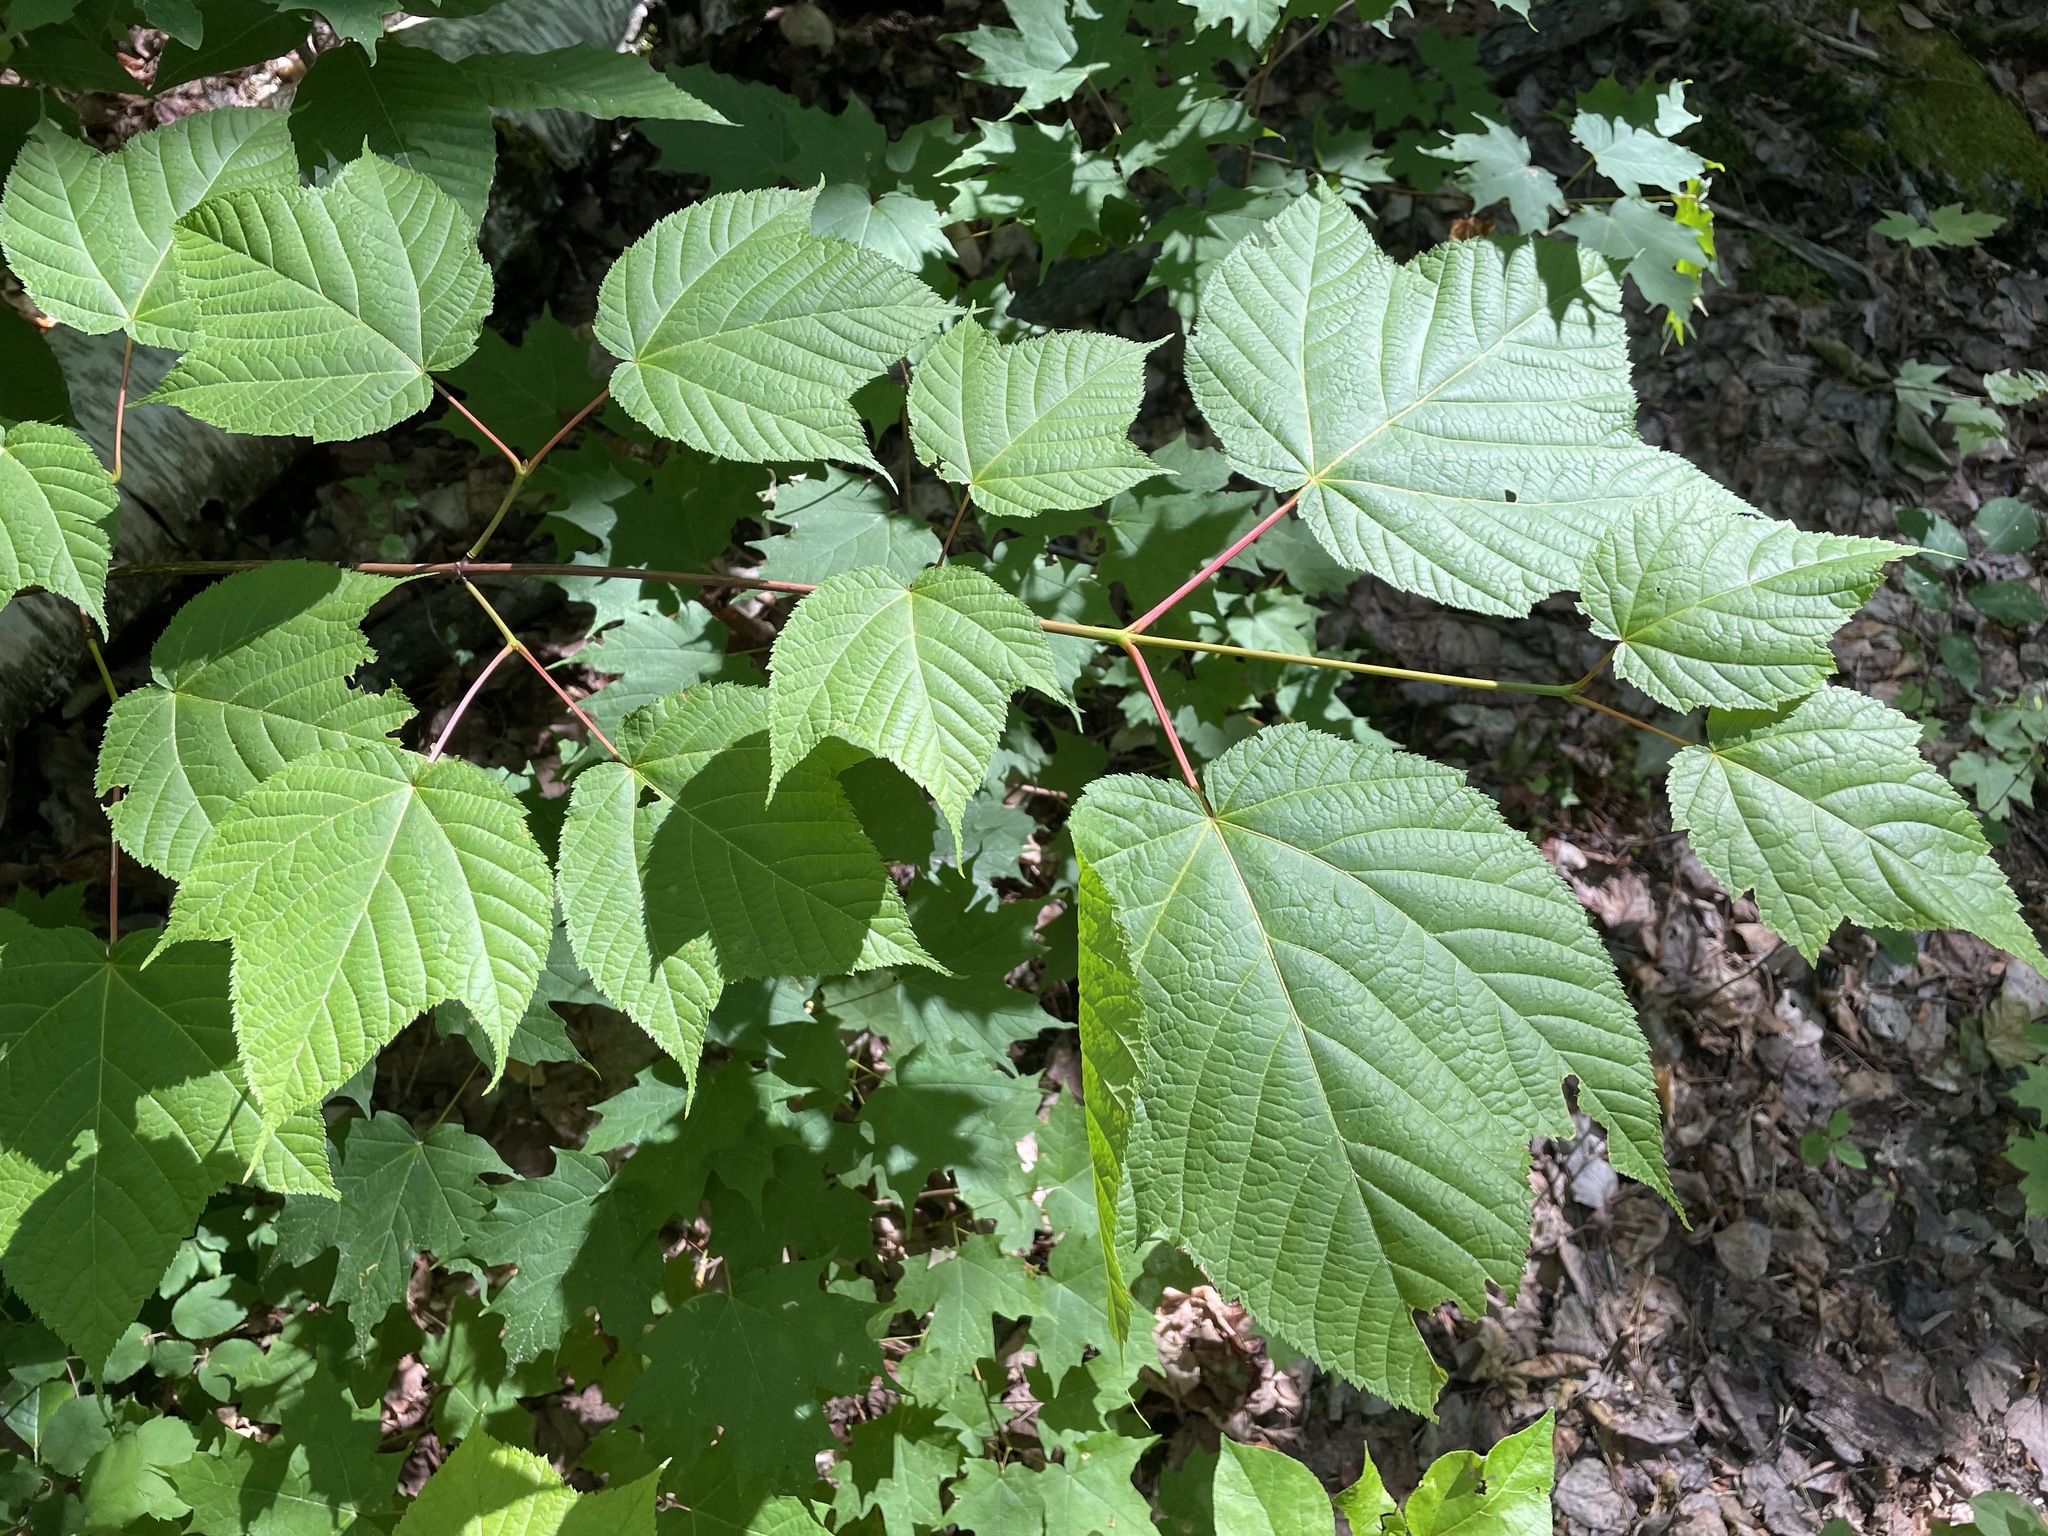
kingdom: Plantae
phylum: Tracheophyta
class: Magnoliopsida
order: Sapindales
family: Sapindaceae
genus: Acer
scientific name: Acer pensylvanicum
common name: Moosewood
